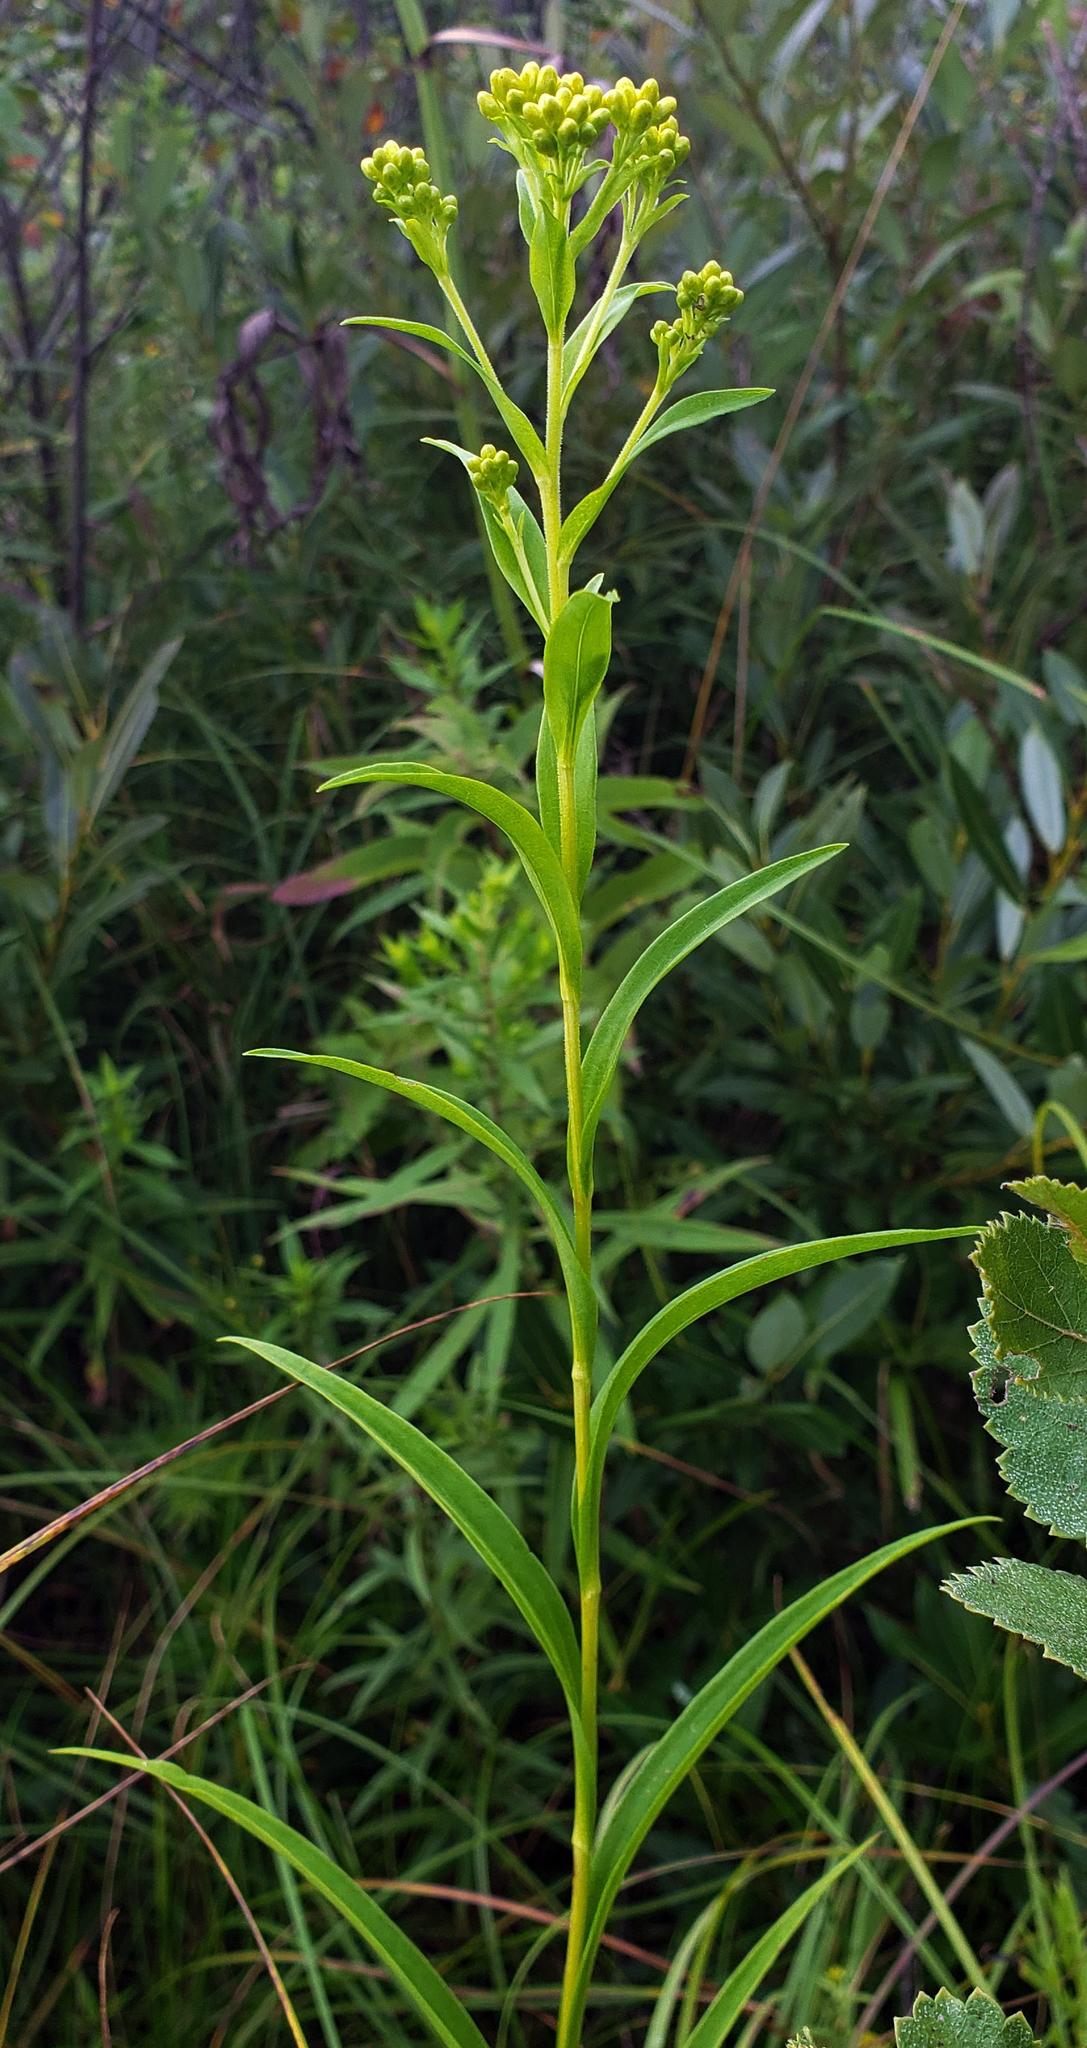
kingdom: Plantae
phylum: Tracheophyta
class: Magnoliopsida
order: Asterales
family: Asteraceae
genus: Solidago
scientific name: Solidago riddellii
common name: Riddell's goldenrod
